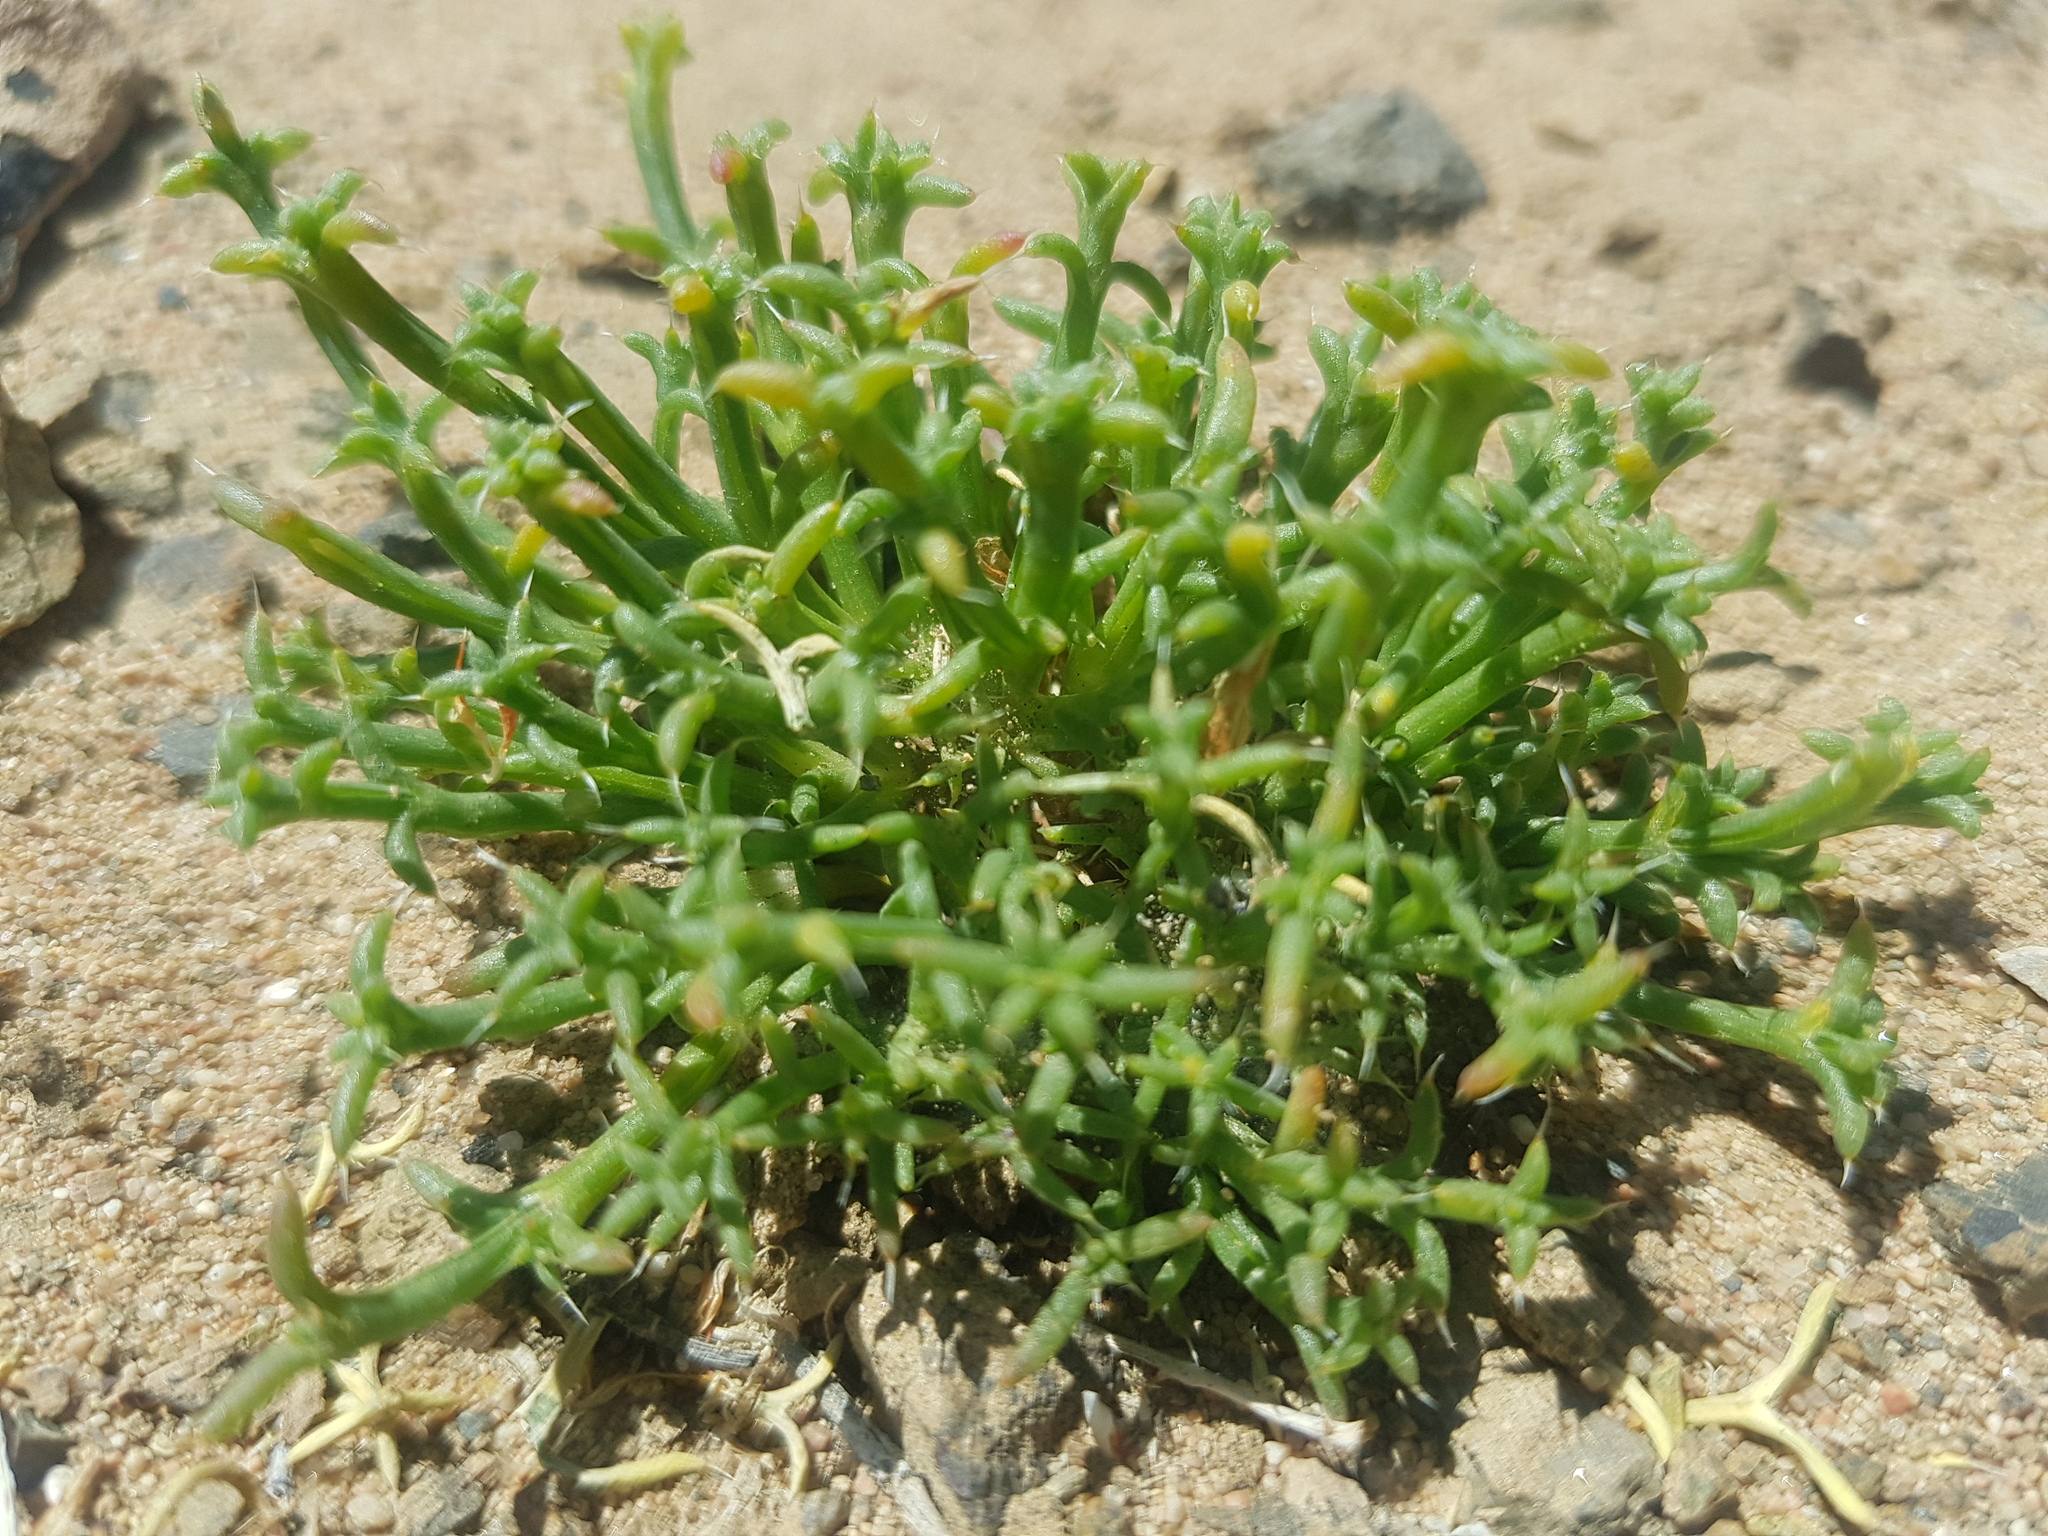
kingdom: Plantae
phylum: Tracheophyta
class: Magnoliopsida
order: Caryophyllales
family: Amaranthaceae
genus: Anabasis
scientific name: Anabasis brevifolia
